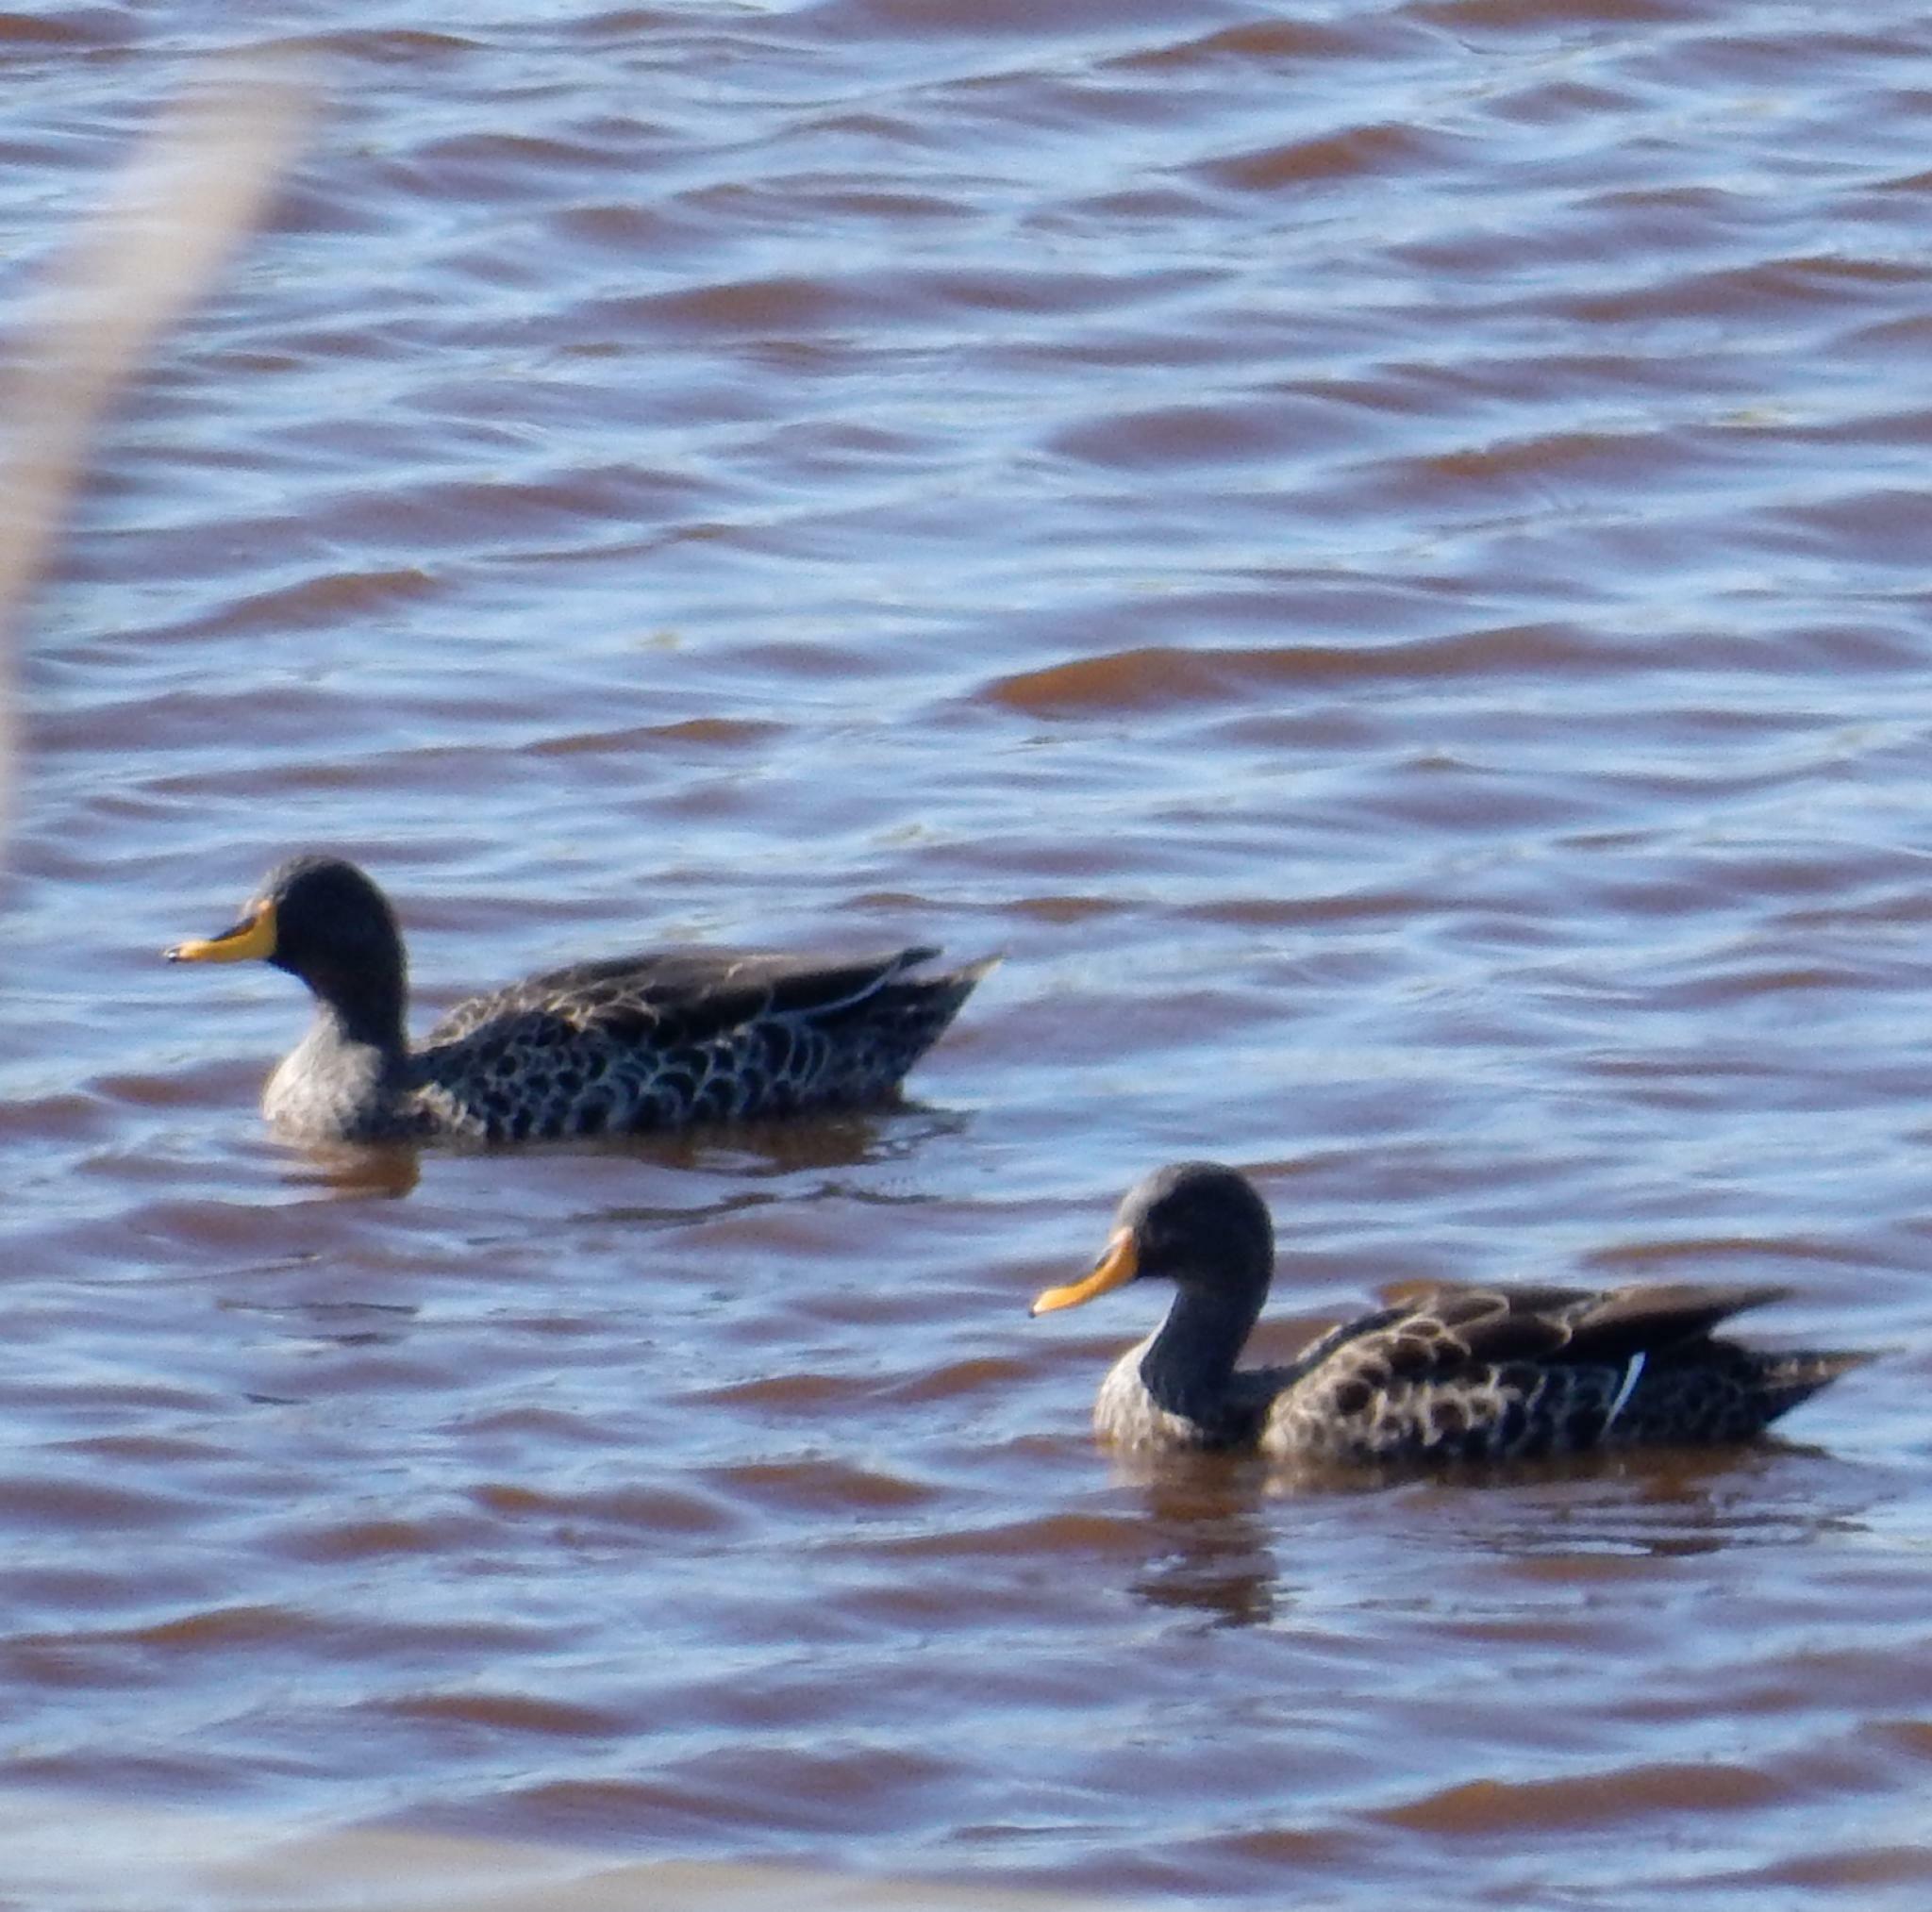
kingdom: Animalia
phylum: Chordata
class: Aves
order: Anseriformes
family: Anatidae
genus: Anas
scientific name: Anas undulata
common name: Yellow-billed duck
